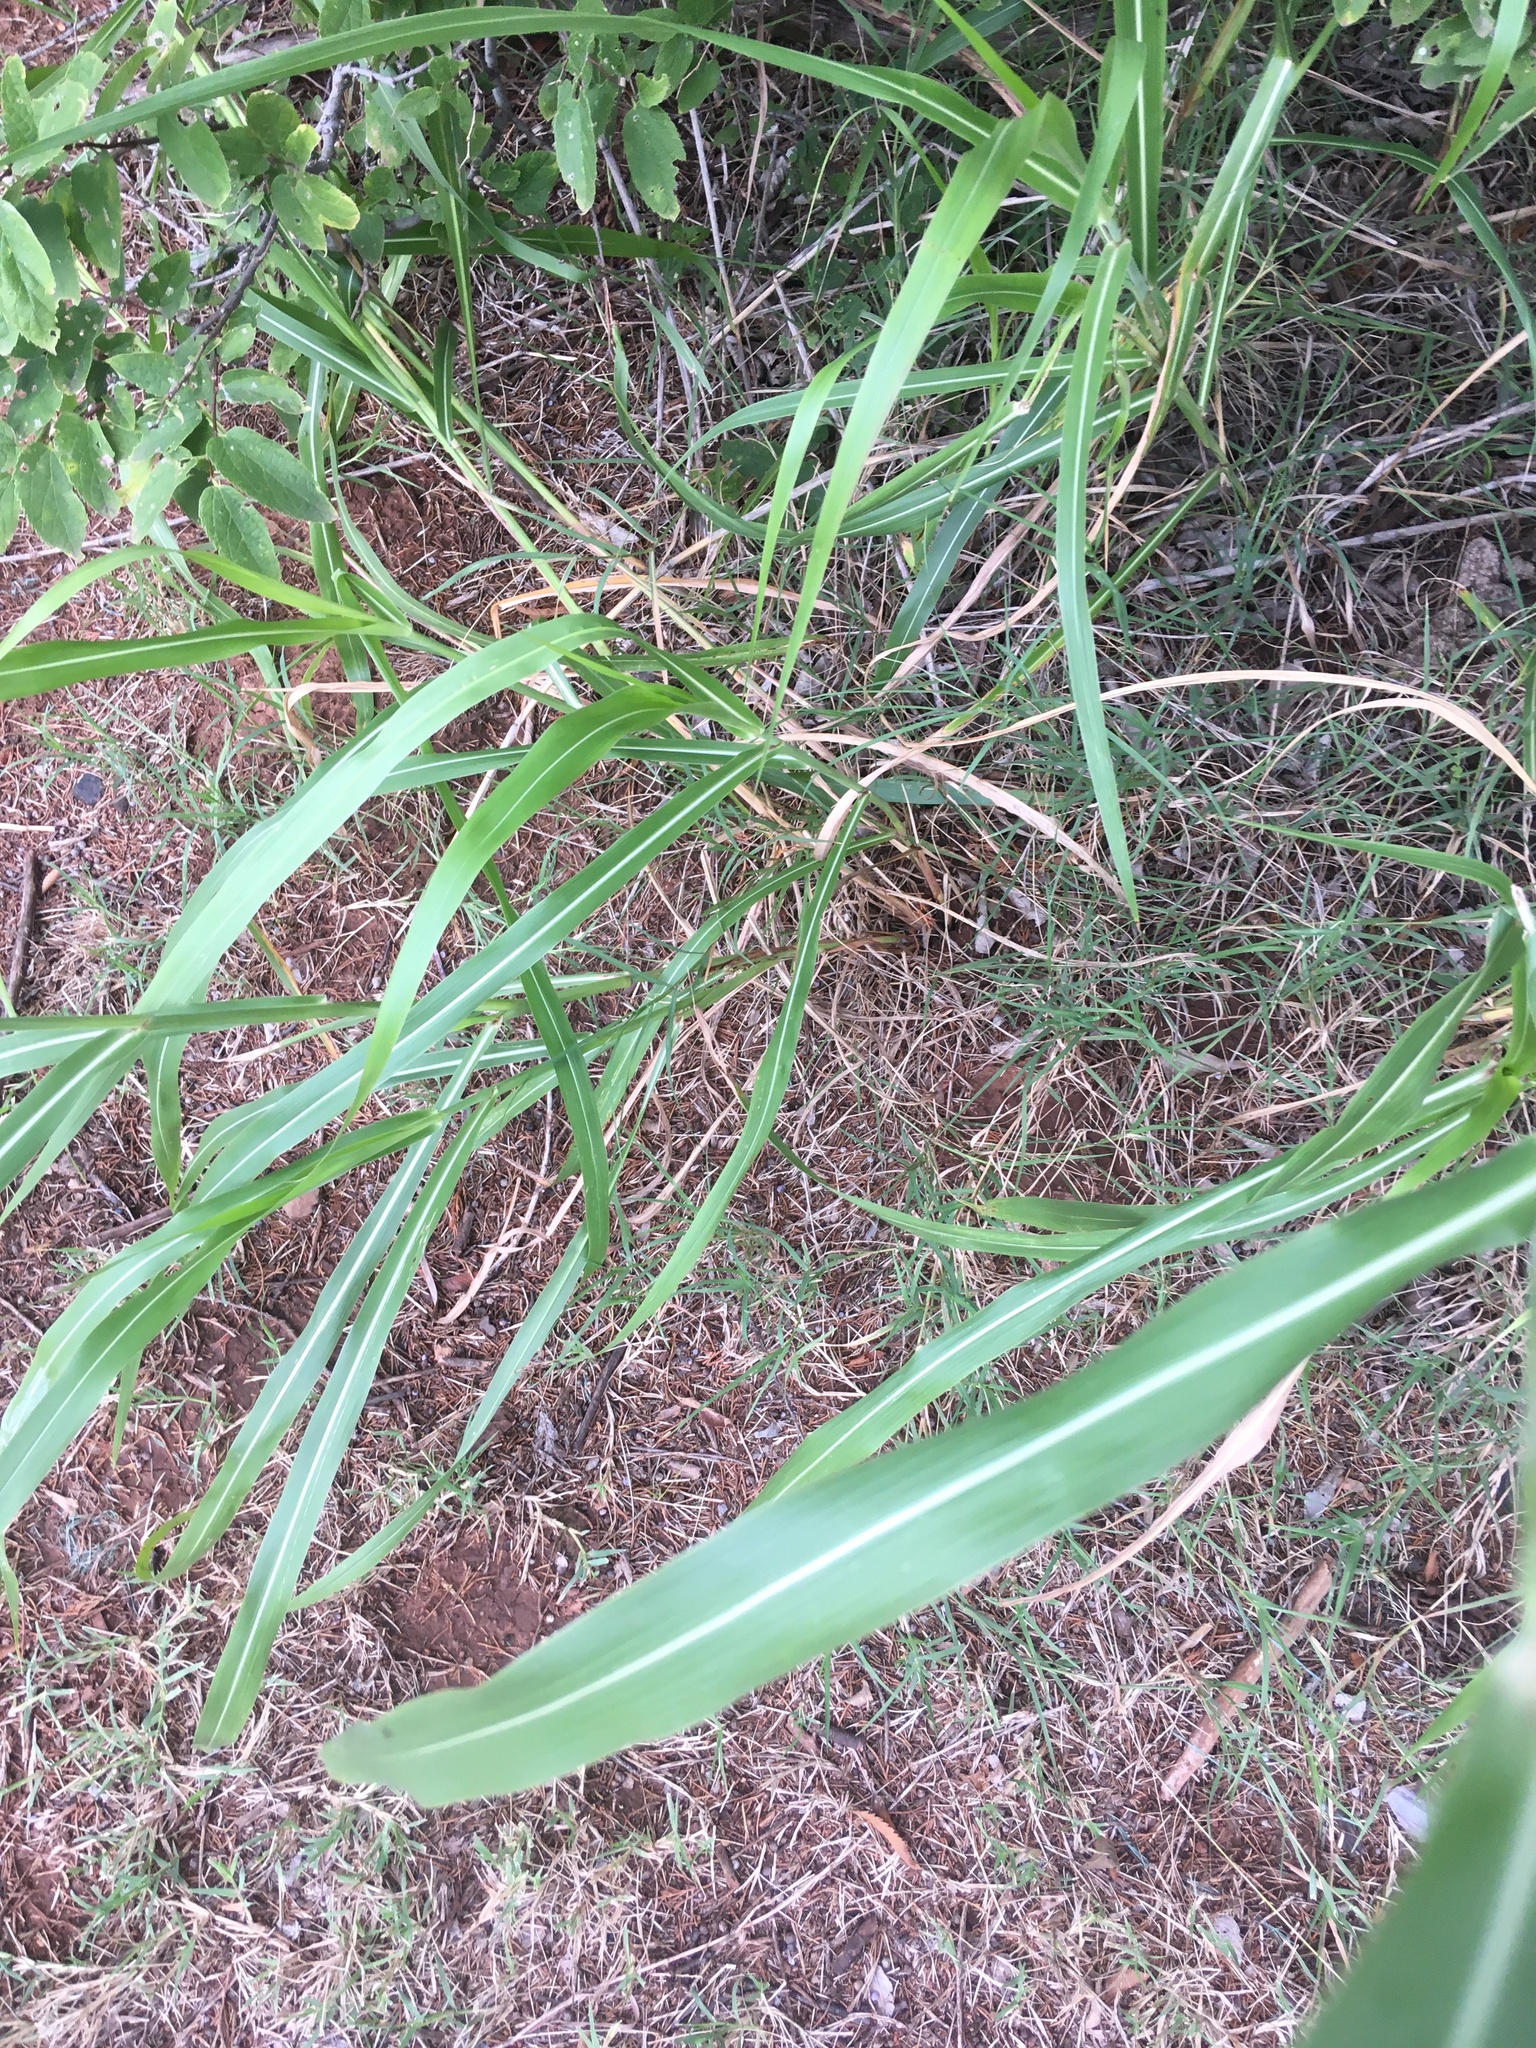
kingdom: Plantae
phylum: Tracheophyta
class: Liliopsida
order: Poales
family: Poaceae
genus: Sorghum
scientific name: Sorghum halepense
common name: Johnson-grass
